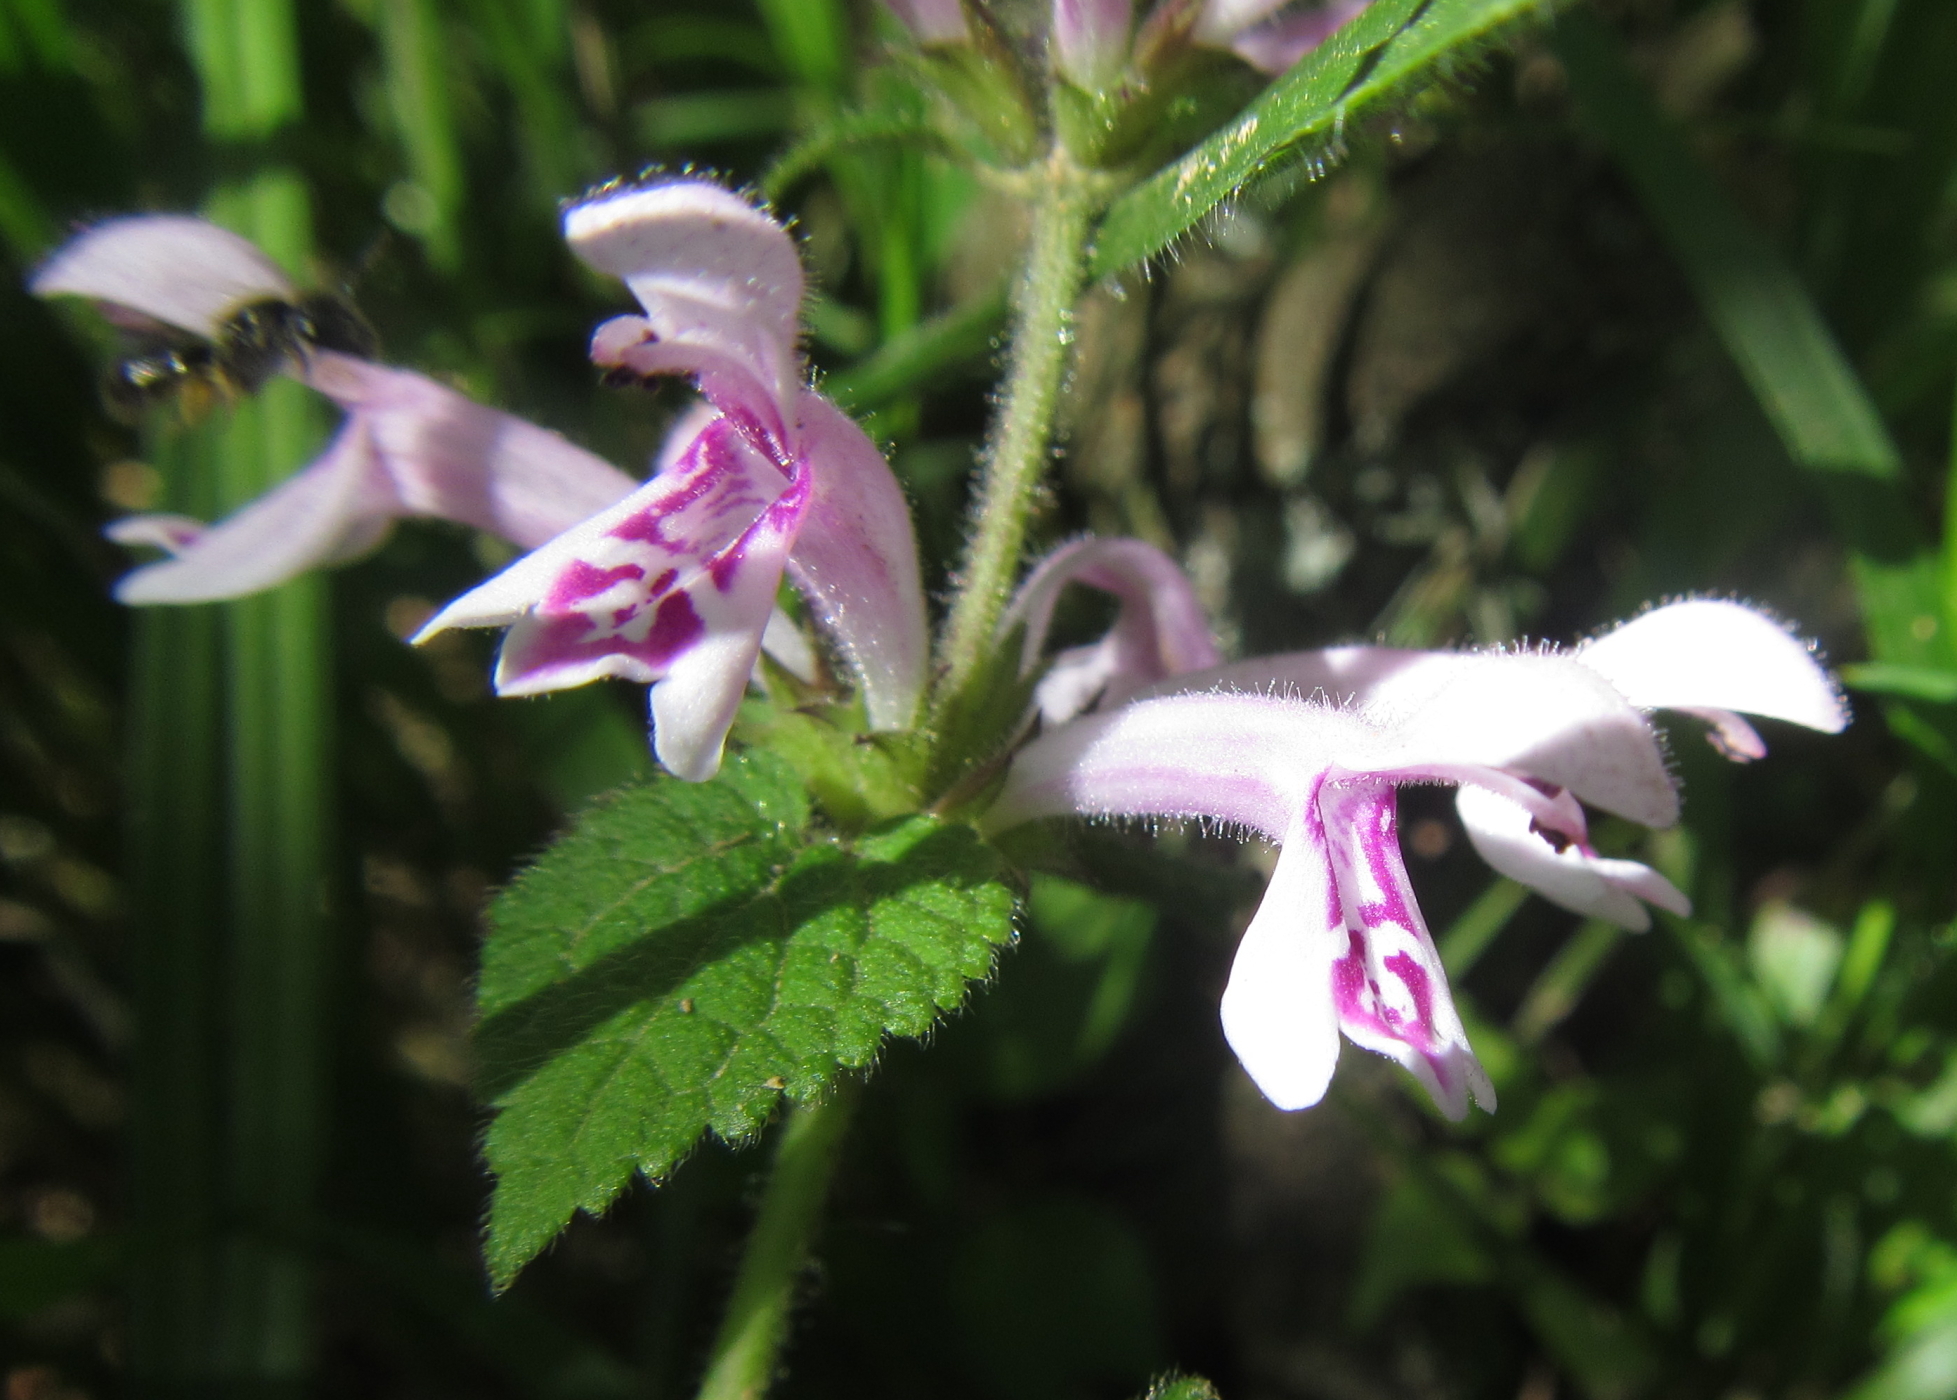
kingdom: Plantae
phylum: Tracheophyta
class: Magnoliopsida
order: Lamiales
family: Lamiaceae
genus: Stachys
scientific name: Stachys tubulosa
